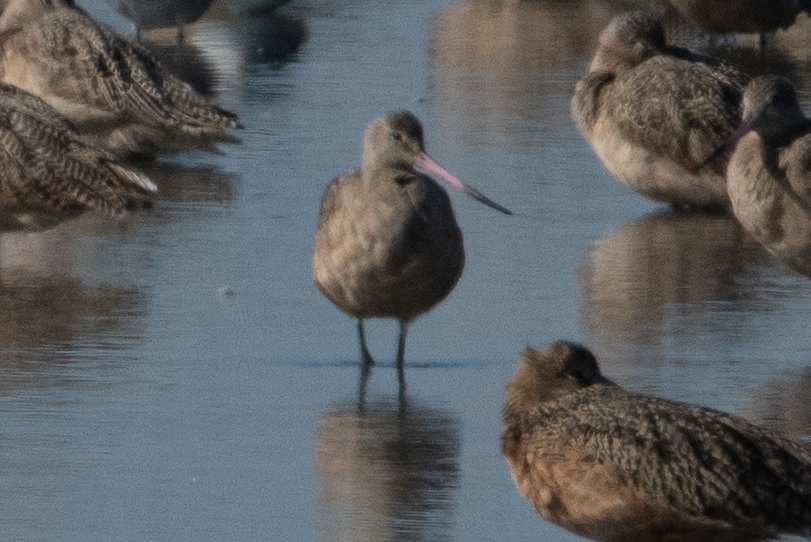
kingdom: Animalia
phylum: Chordata
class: Aves
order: Charadriiformes
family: Scolopacidae
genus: Limosa
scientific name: Limosa fedoa
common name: Marbled godwit
